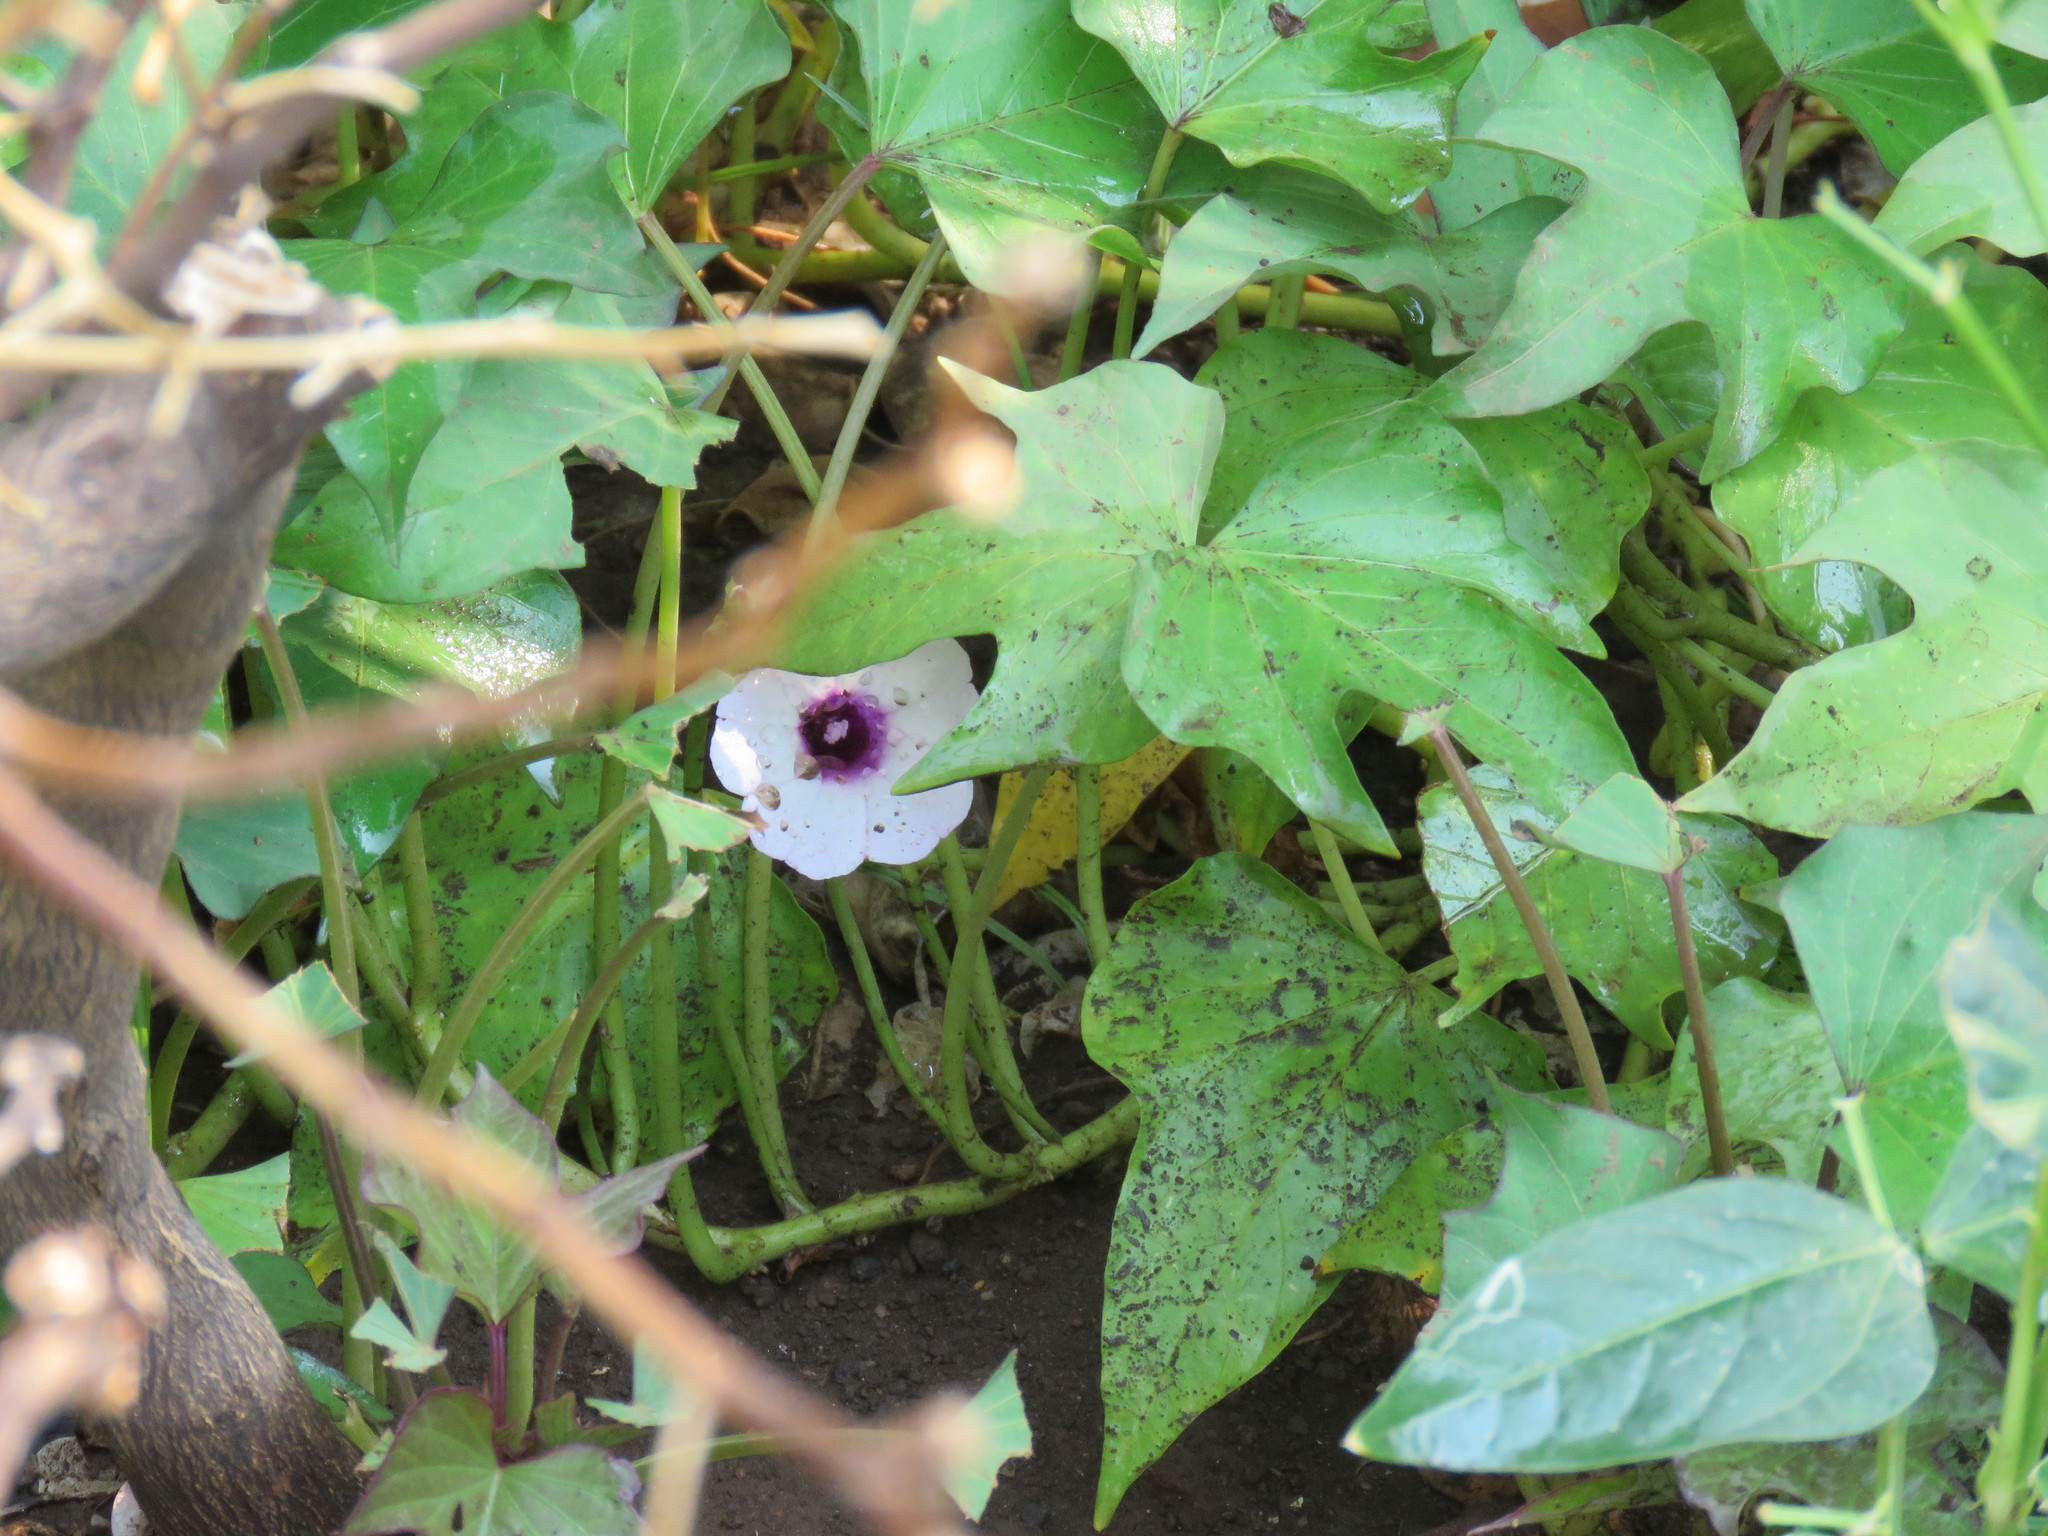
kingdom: Plantae
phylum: Tracheophyta
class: Magnoliopsida
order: Solanales
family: Convolvulaceae
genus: Ipomoea
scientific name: Ipomoea batatas
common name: Sweet-potato
